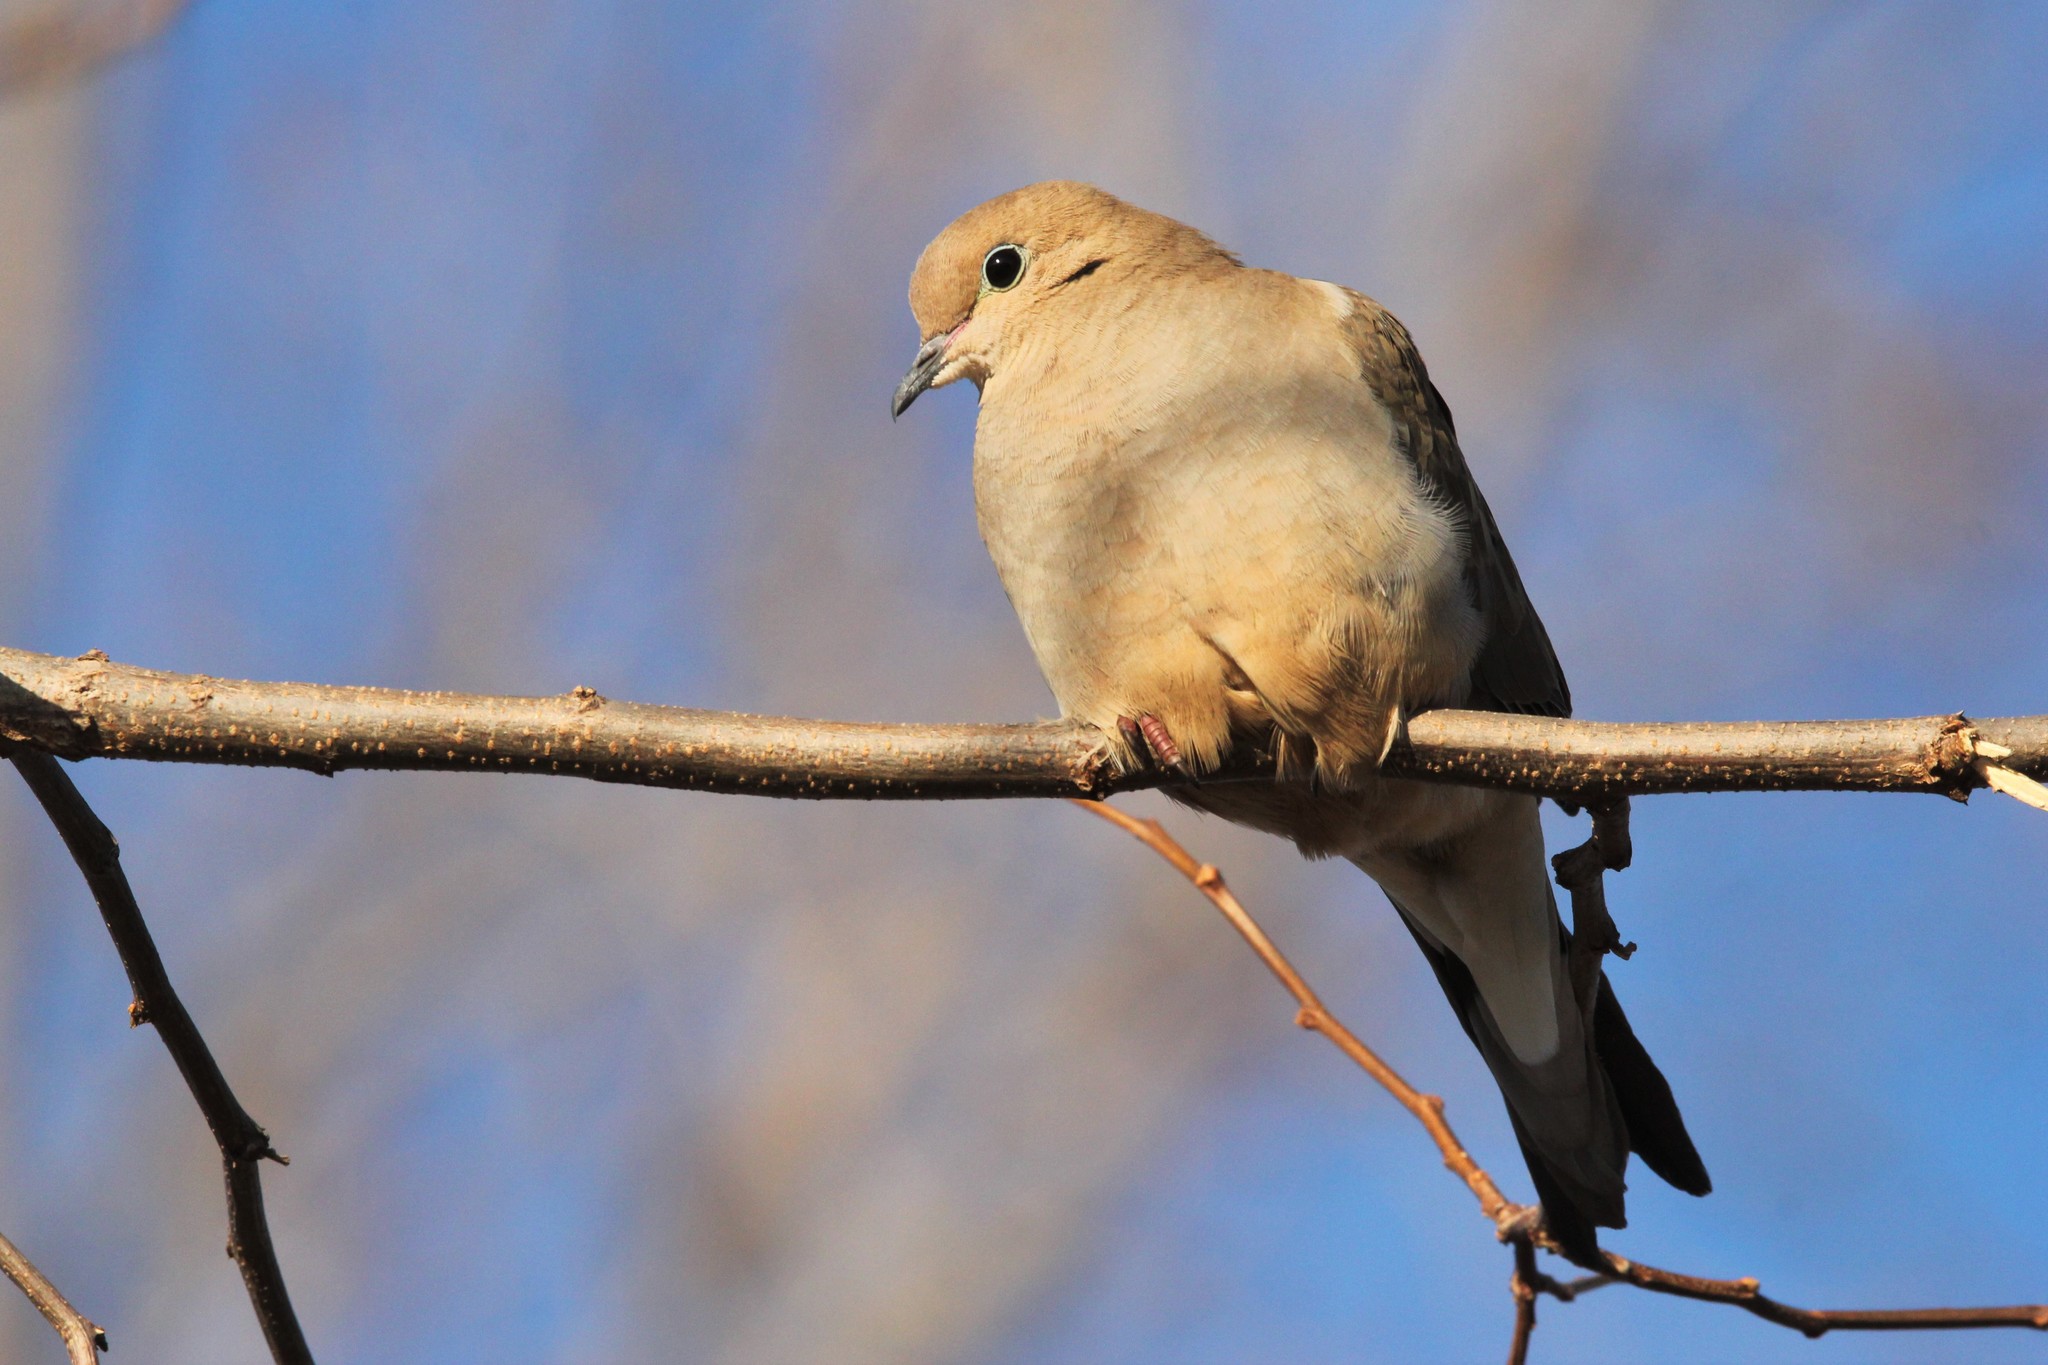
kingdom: Animalia
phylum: Chordata
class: Aves
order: Columbiformes
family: Columbidae
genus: Zenaida
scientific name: Zenaida macroura
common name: Mourning dove
